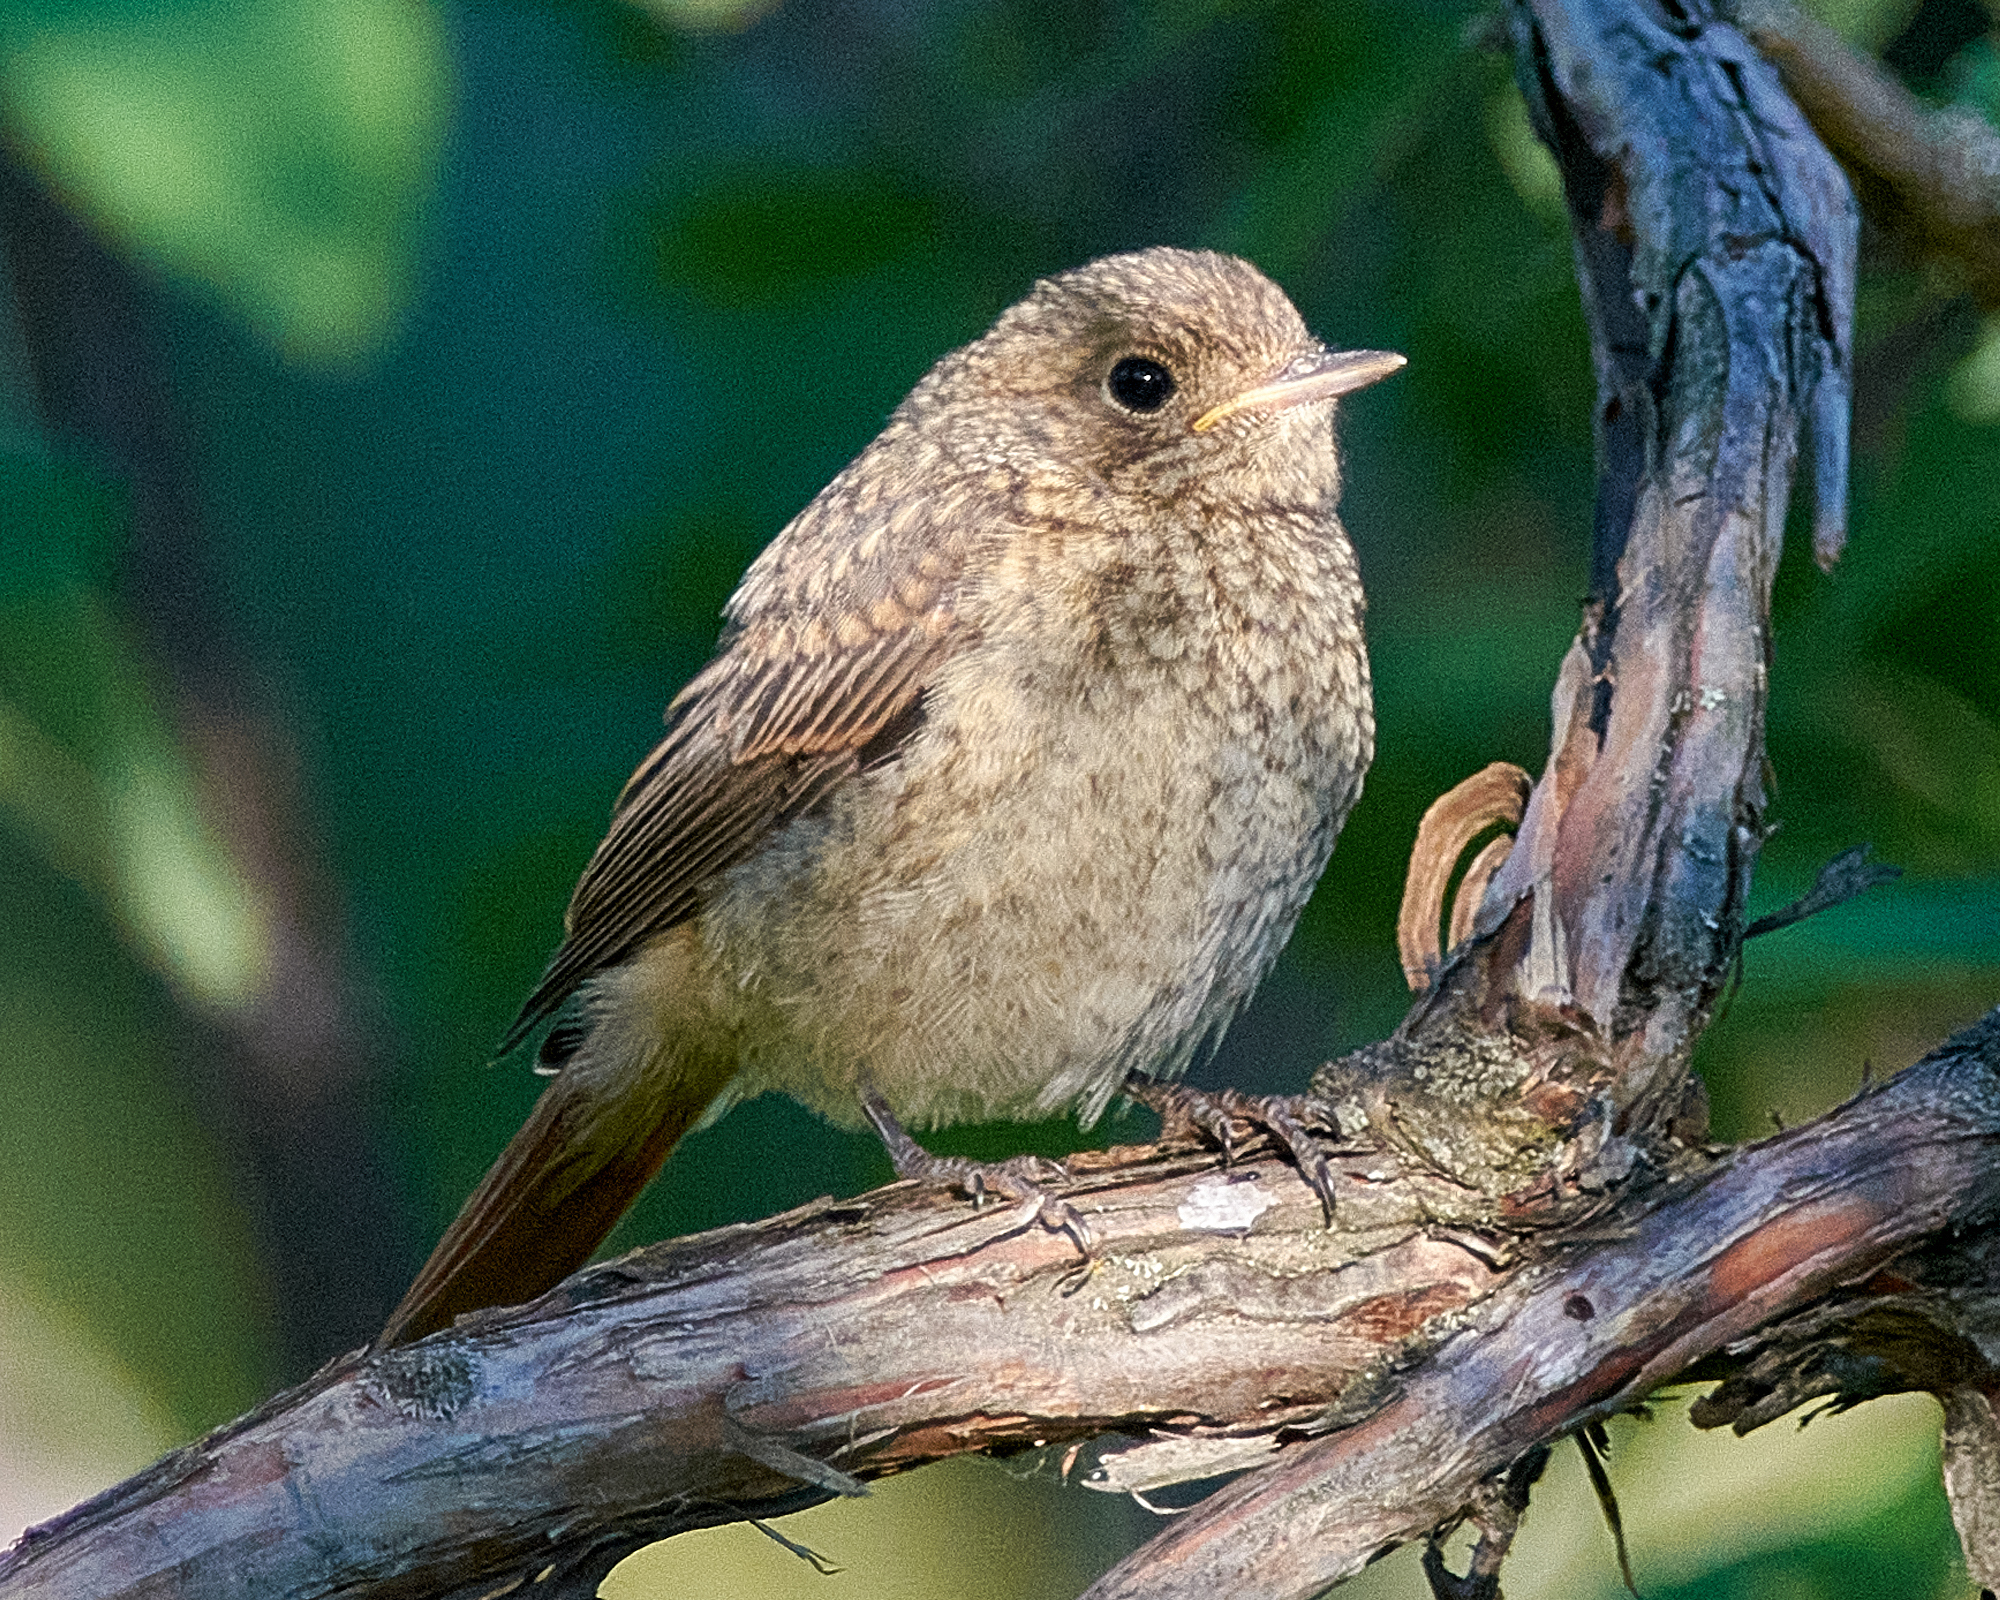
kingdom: Animalia
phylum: Chordata
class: Aves
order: Passeriformes
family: Muscicapidae
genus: Phoenicurus
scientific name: Phoenicurus phoenicurus
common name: Common redstart
